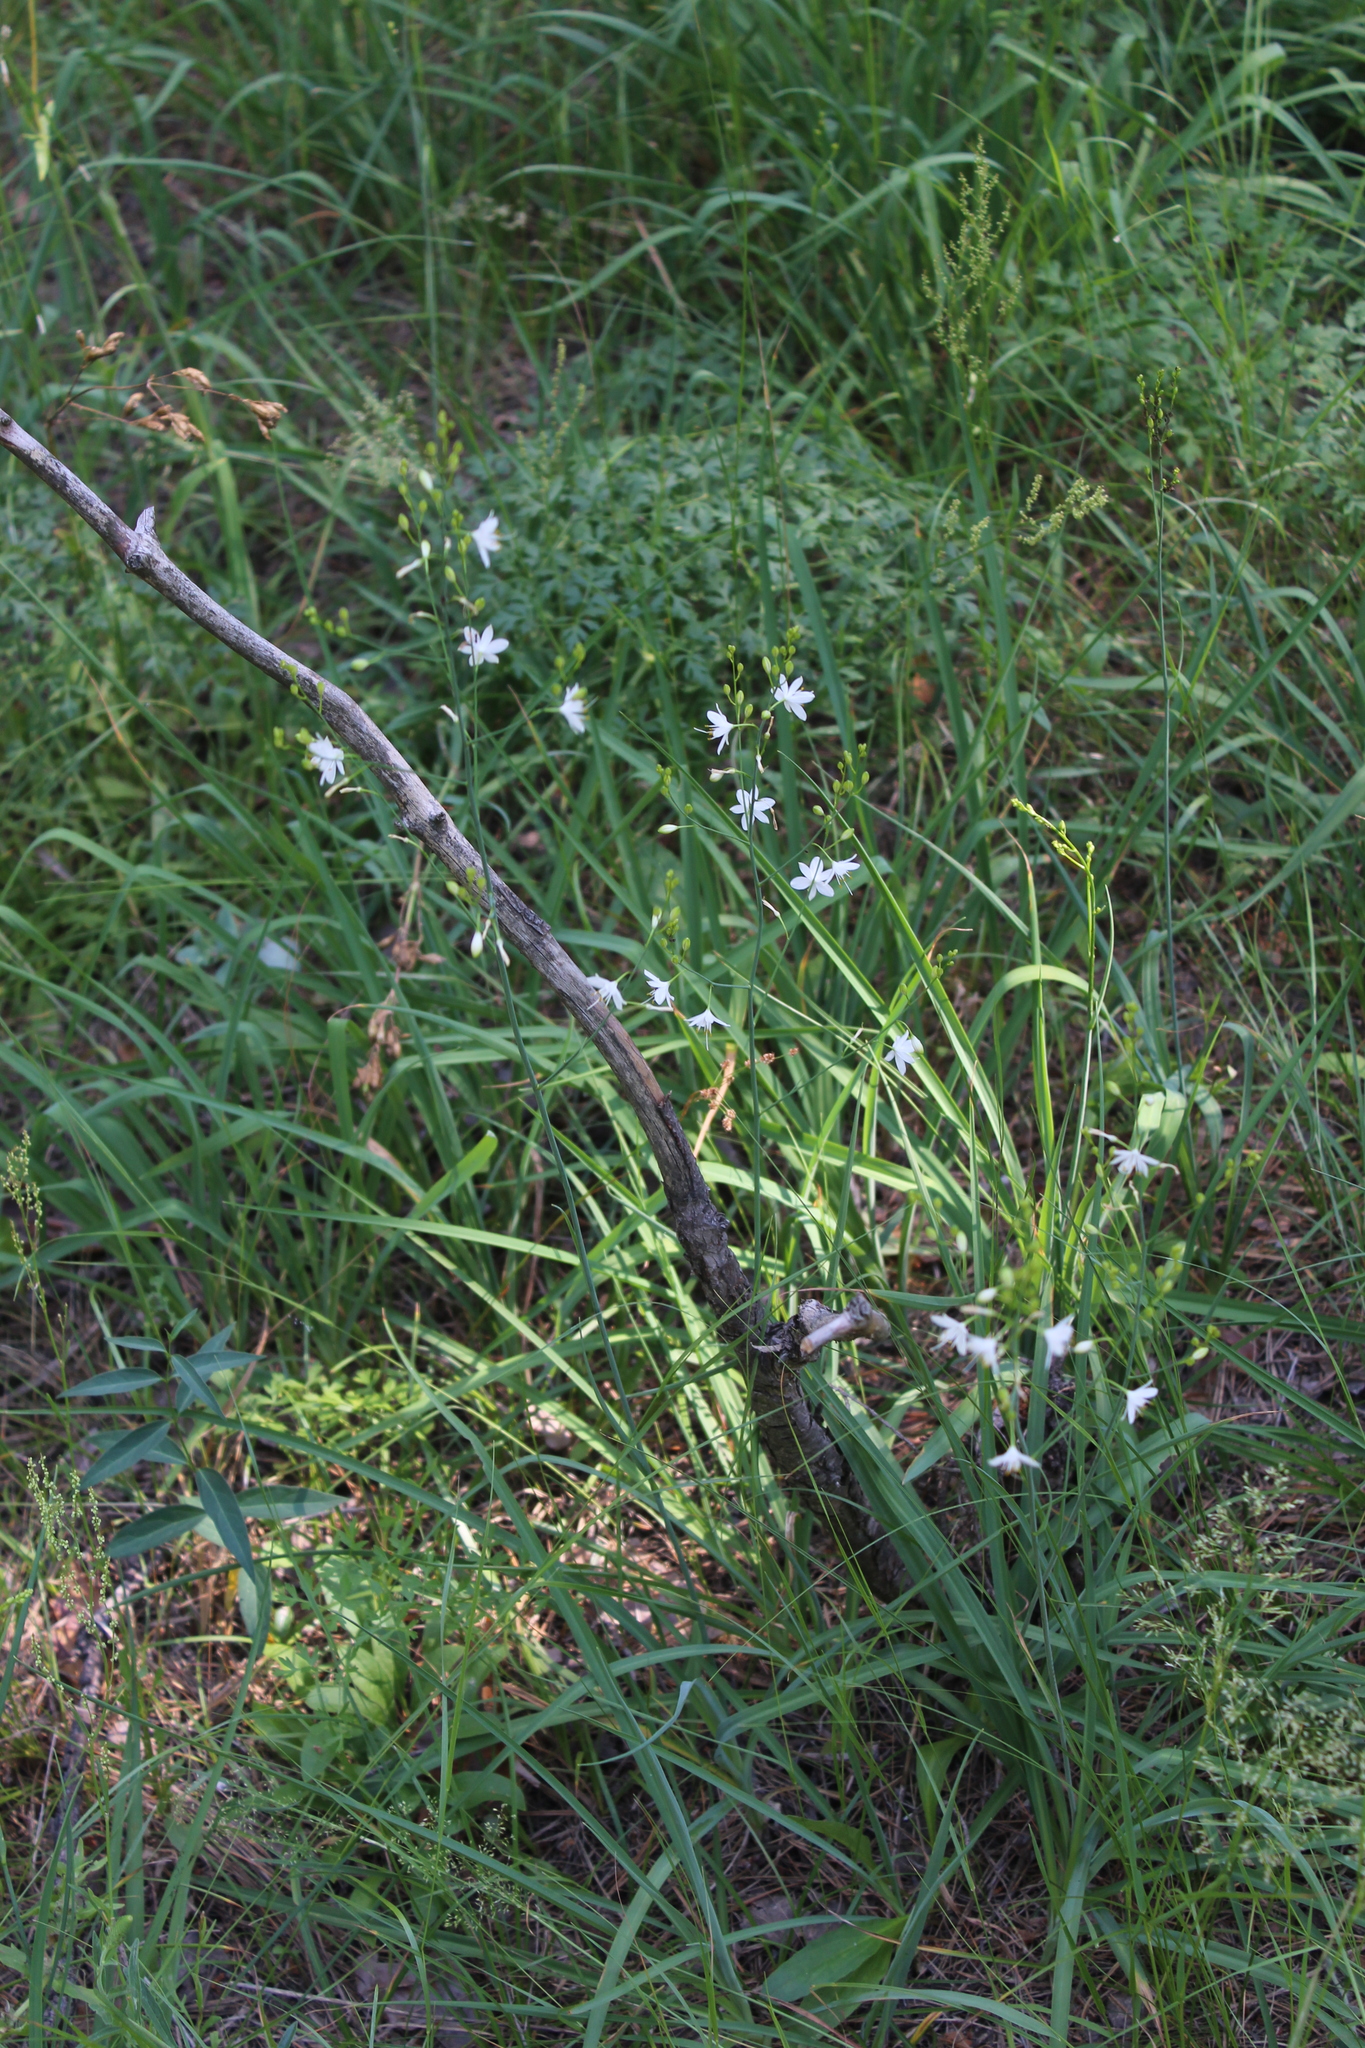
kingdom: Plantae
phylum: Tracheophyta
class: Liliopsida
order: Asparagales
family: Asparagaceae
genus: Anthericum
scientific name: Anthericum ramosum
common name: Branched st. bernard's-lily
